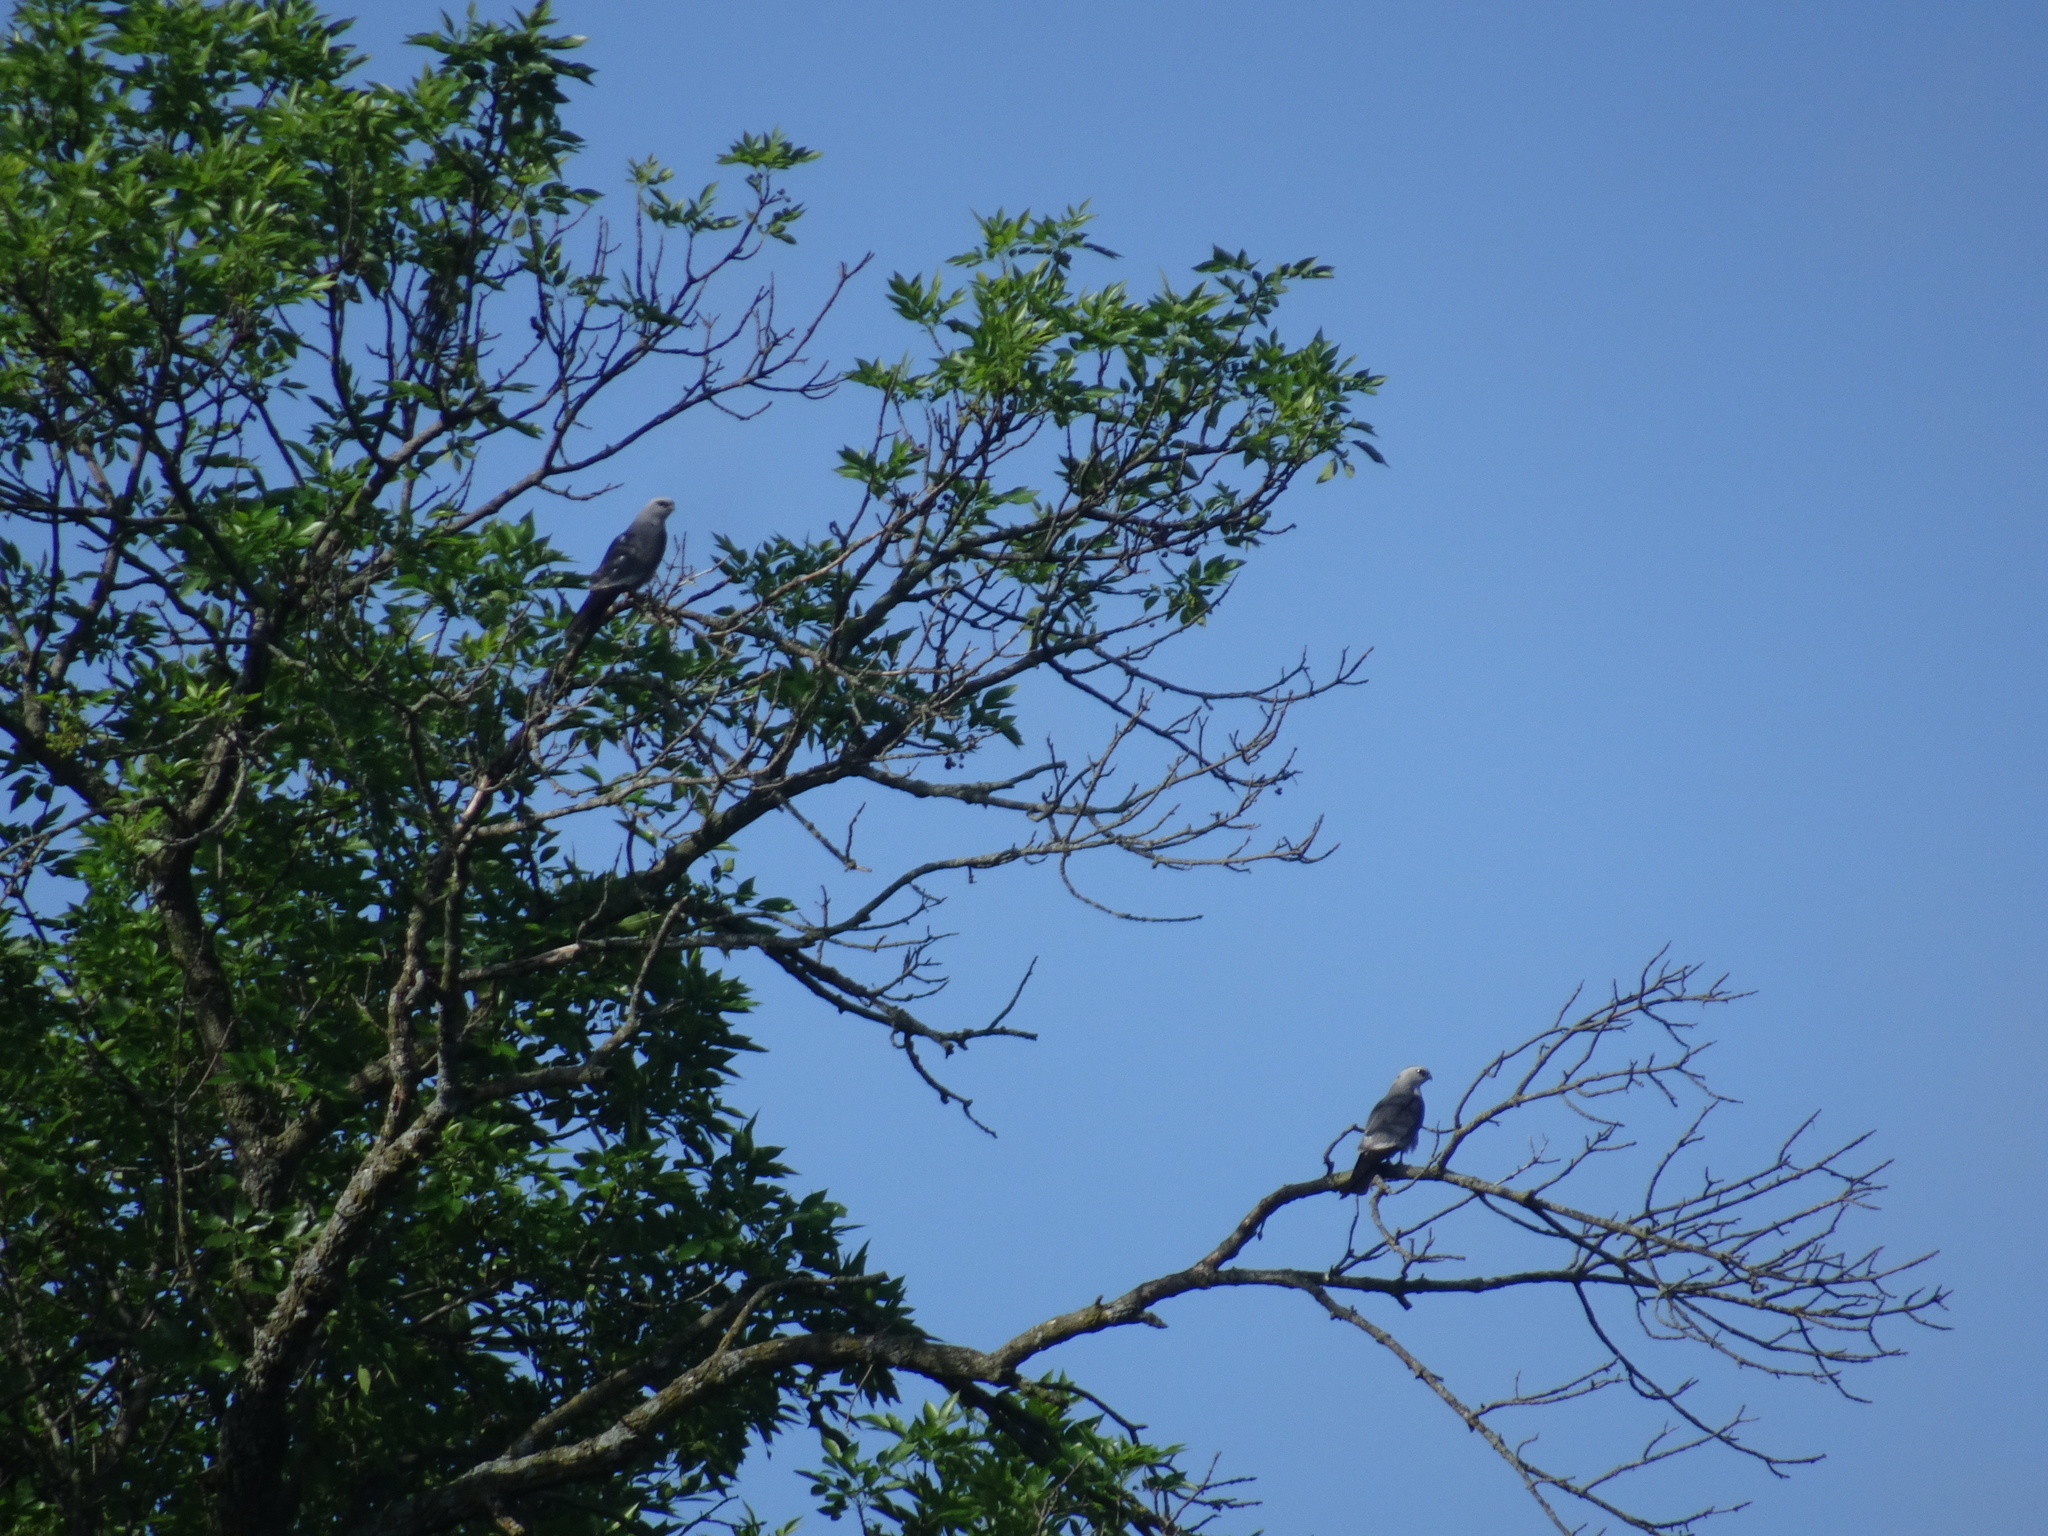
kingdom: Animalia
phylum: Chordata
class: Aves
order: Accipitriformes
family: Accipitridae
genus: Ictinia
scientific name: Ictinia mississippiensis
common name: Mississippi kite
